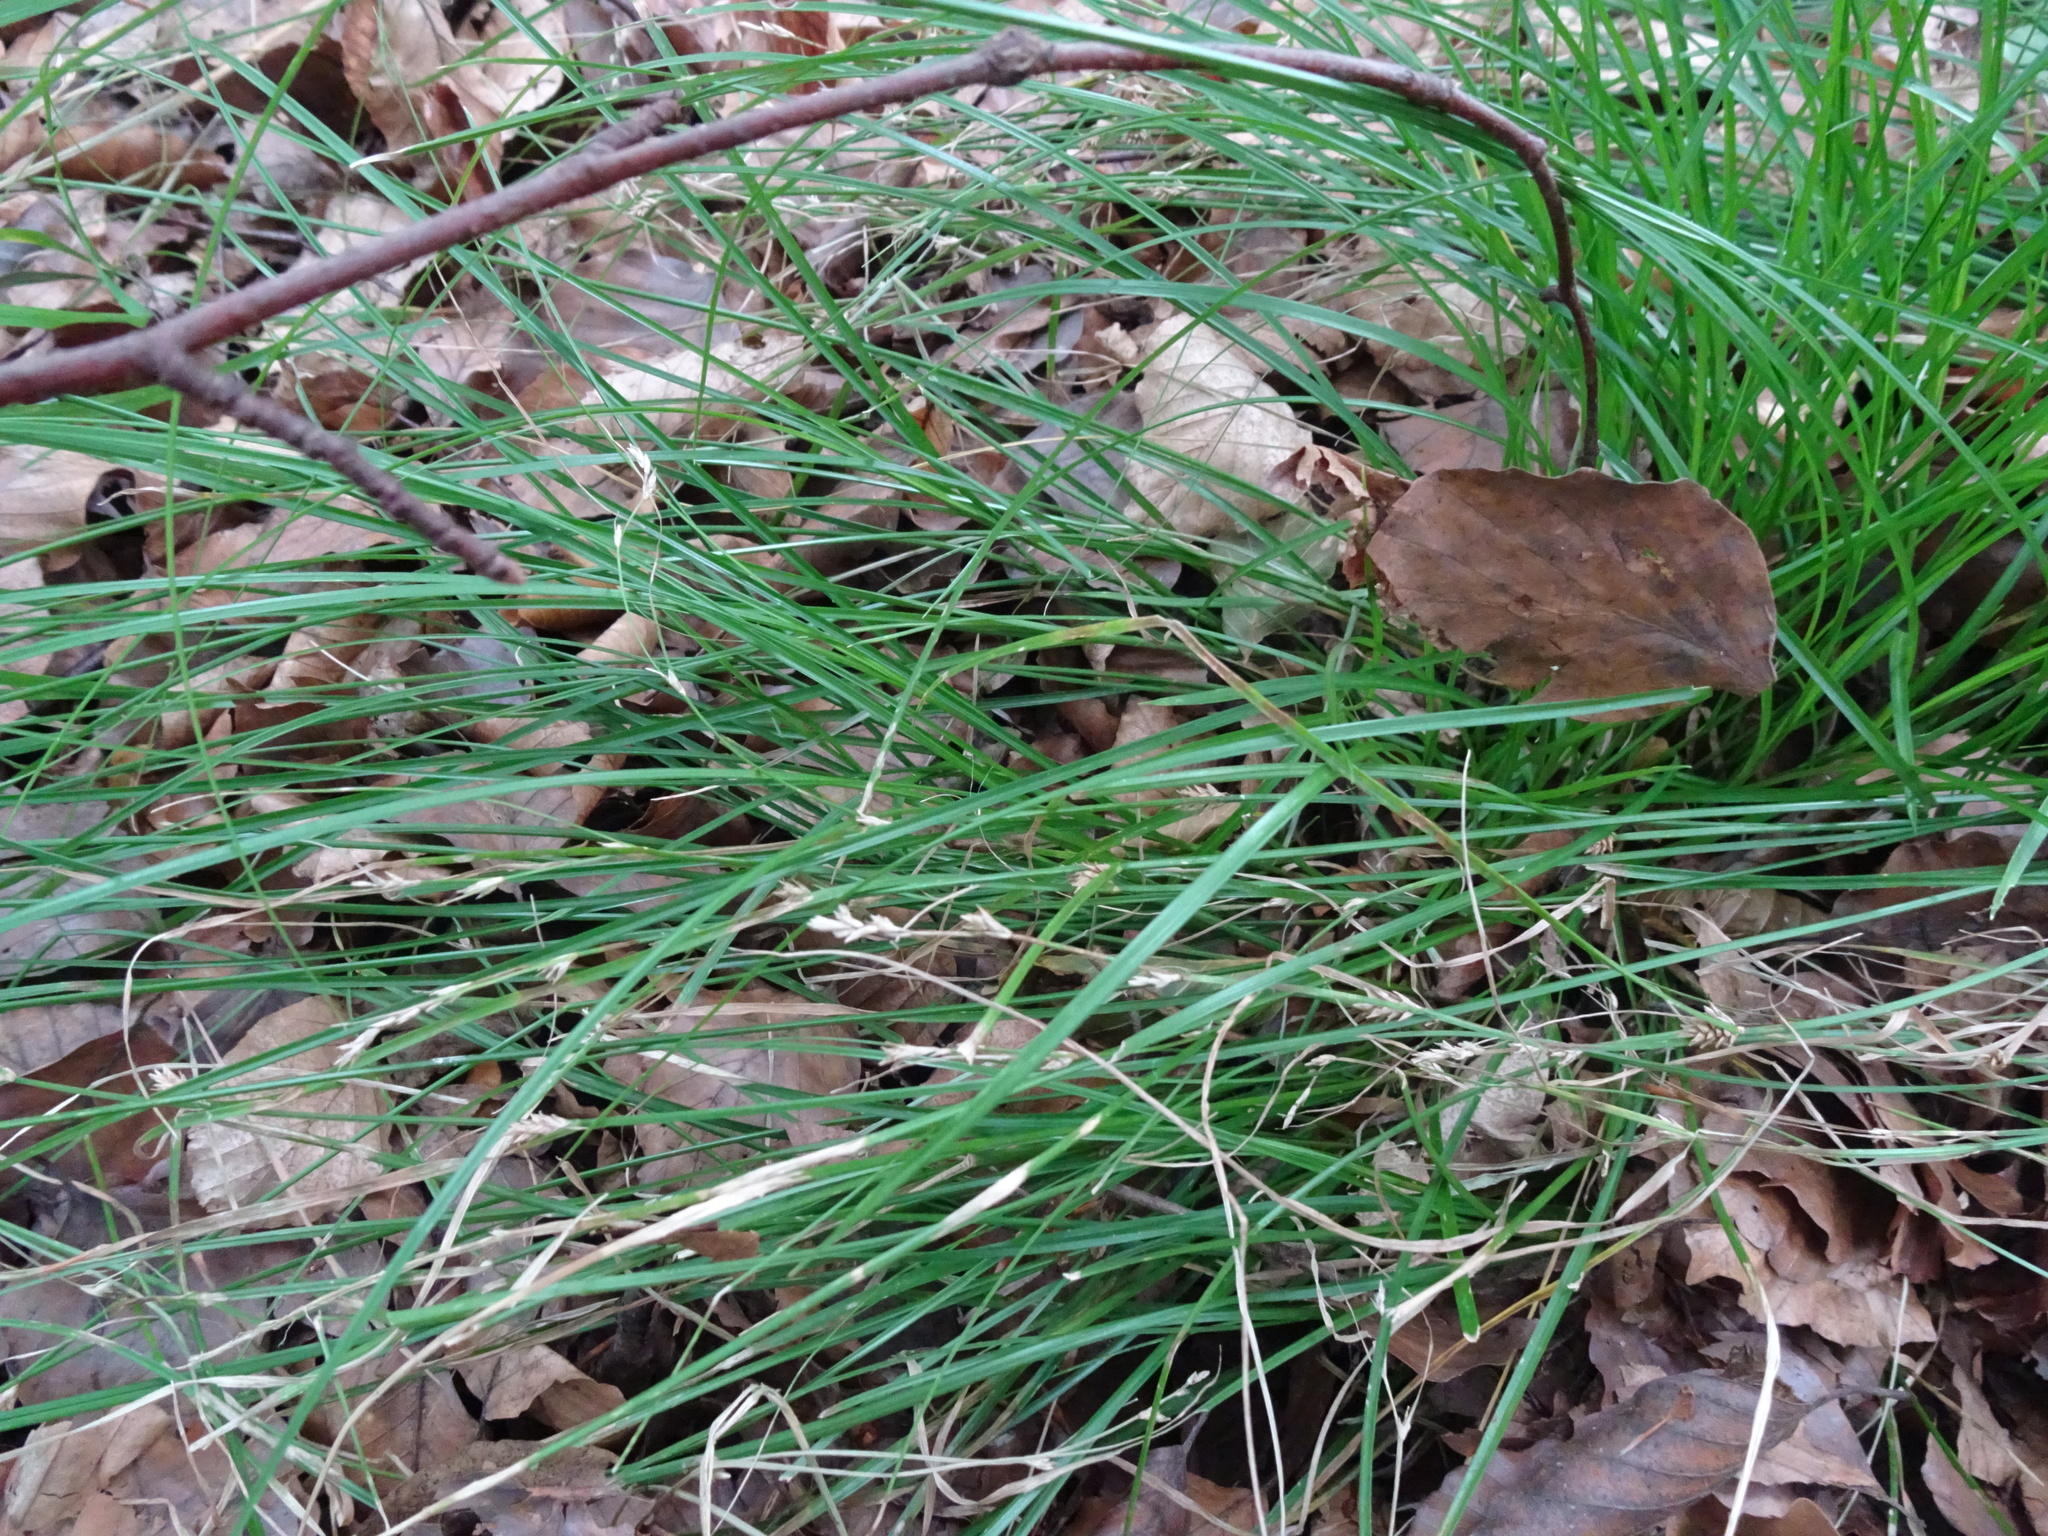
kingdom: Plantae
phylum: Tracheophyta
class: Liliopsida
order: Poales
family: Cyperaceae
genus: Carex
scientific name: Carex remota
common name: Remote sedge
